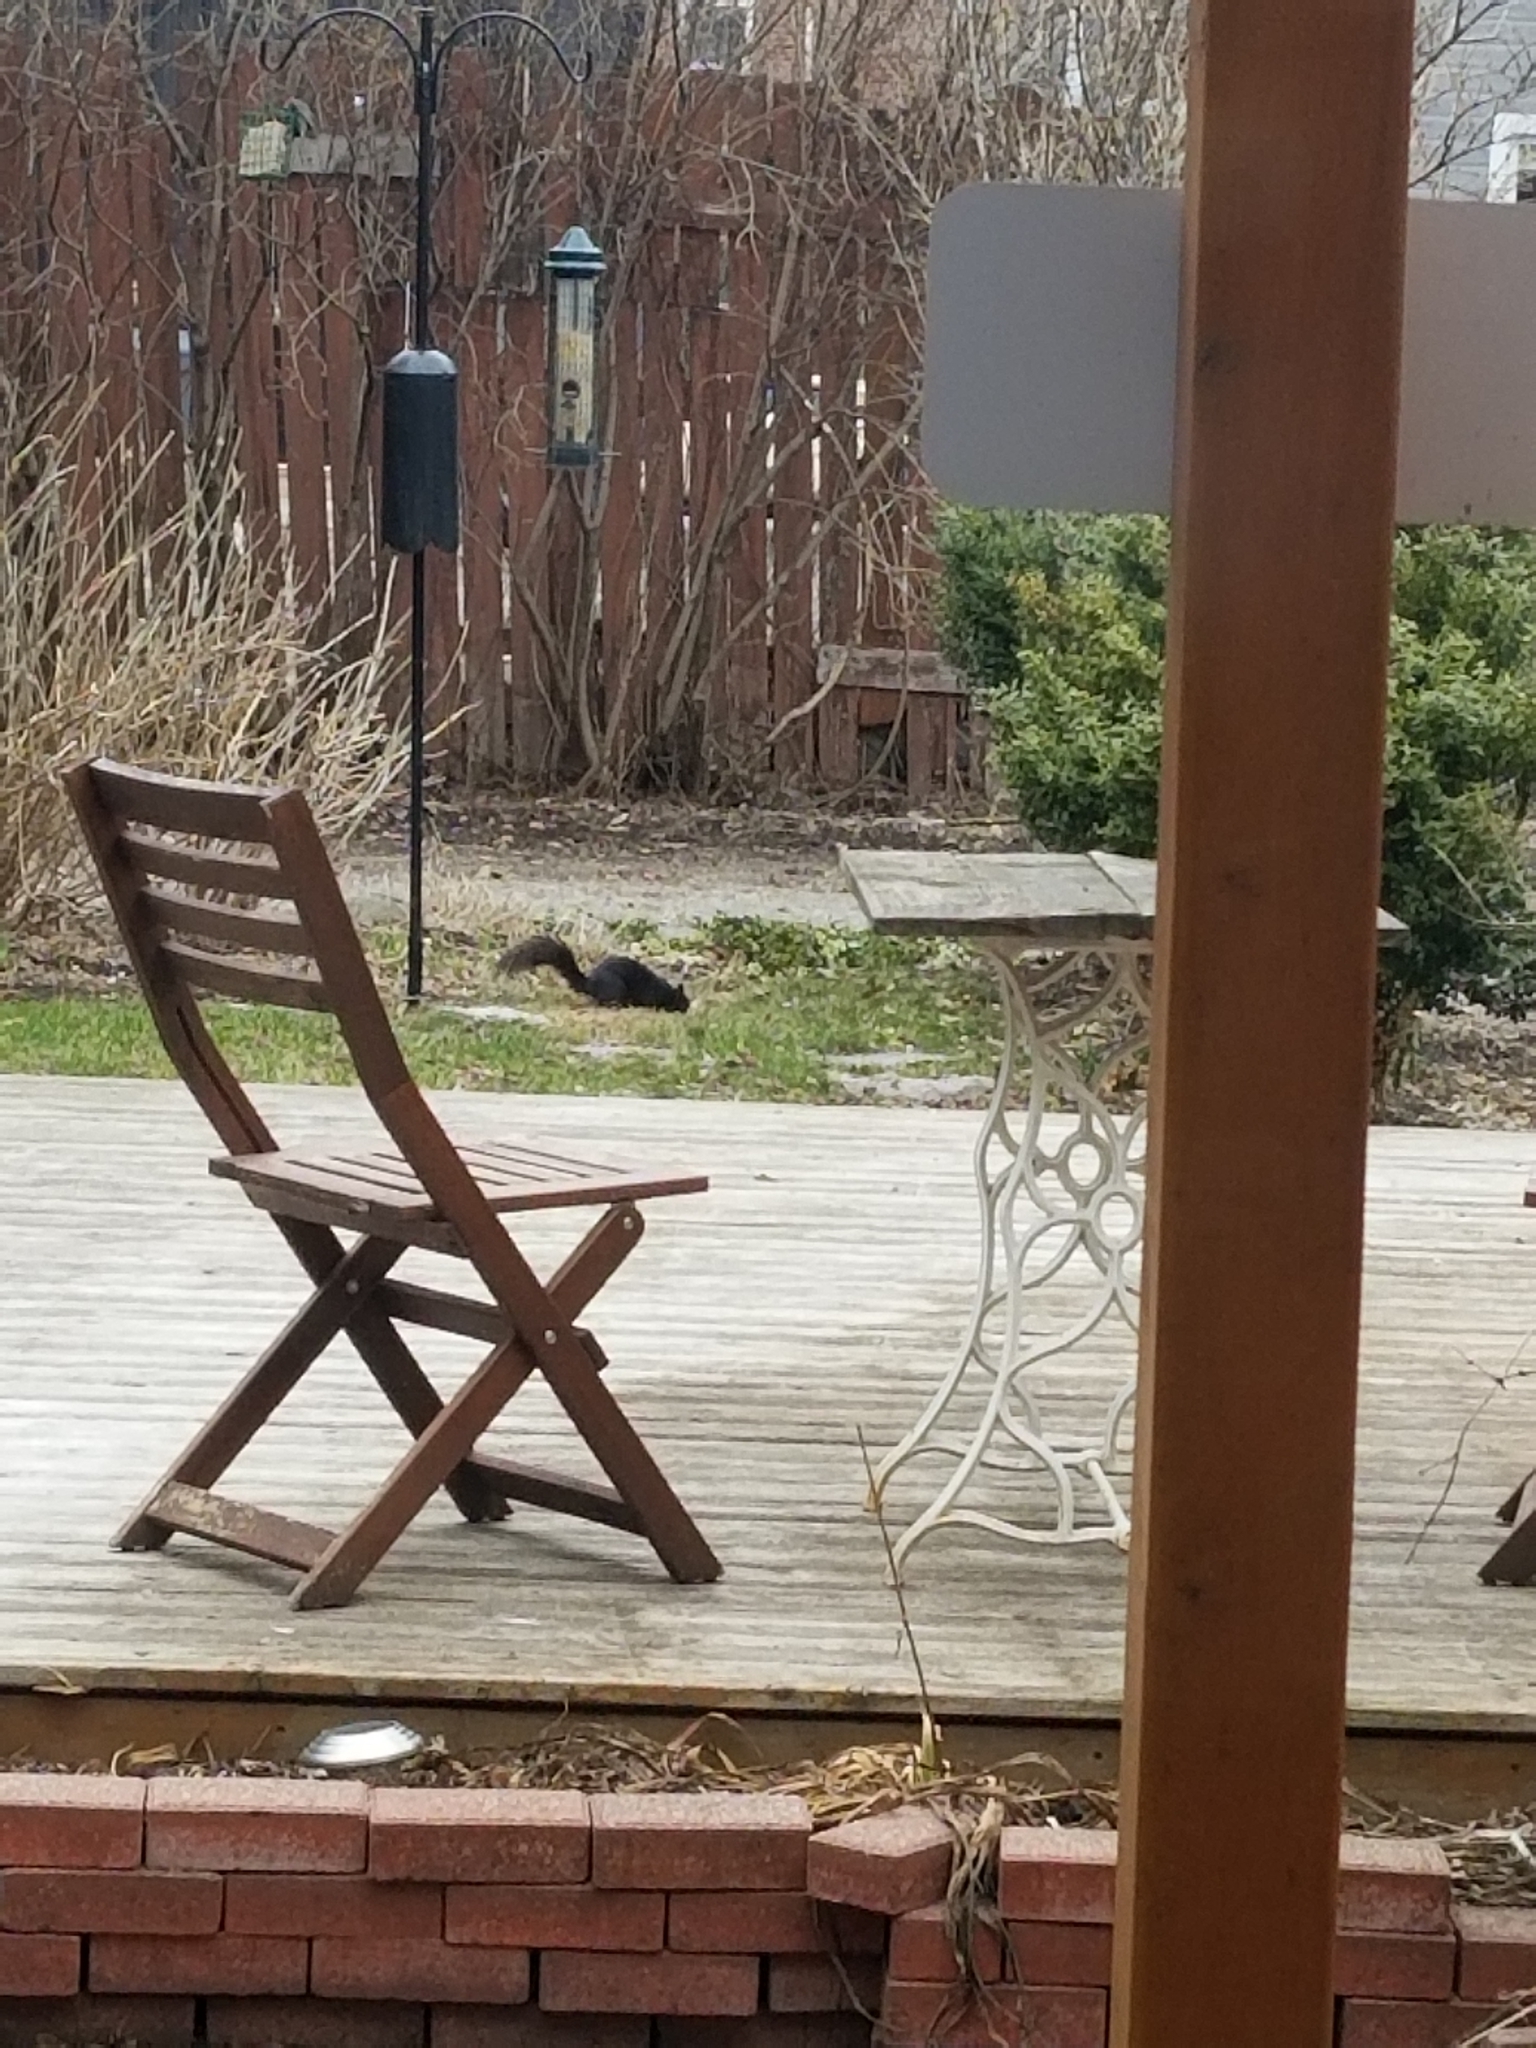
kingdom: Animalia
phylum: Chordata
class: Mammalia
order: Rodentia
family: Sciuridae
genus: Sciurus
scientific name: Sciurus carolinensis
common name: Eastern gray squirrel
